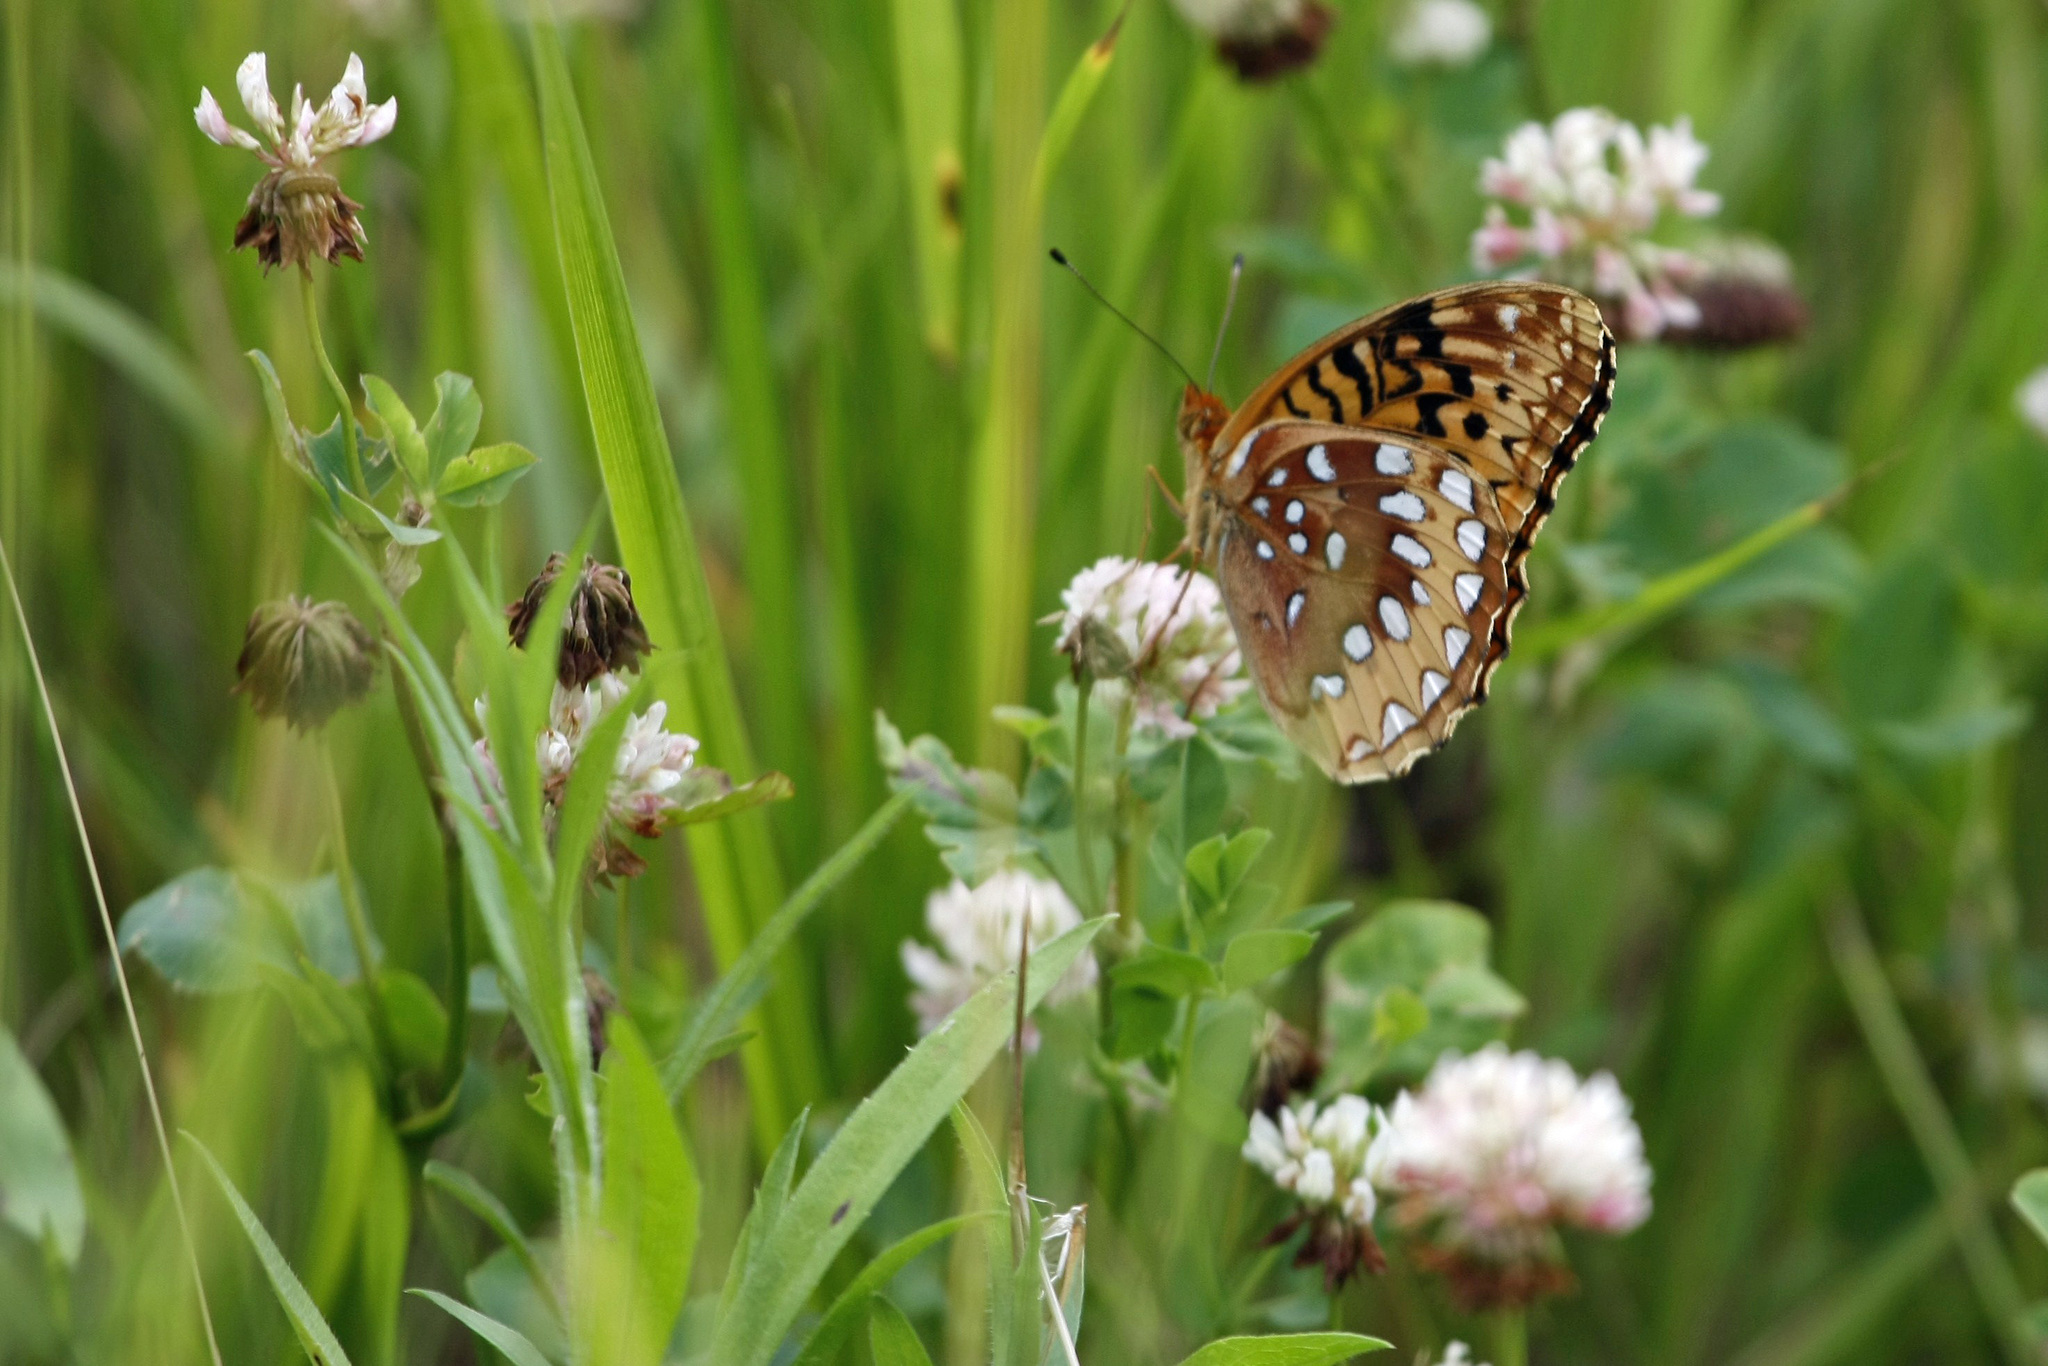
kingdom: Animalia
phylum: Arthropoda
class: Insecta
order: Lepidoptera
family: Nymphalidae
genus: Speyeria
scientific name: Speyeria cybele
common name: Great spangled fritillary
